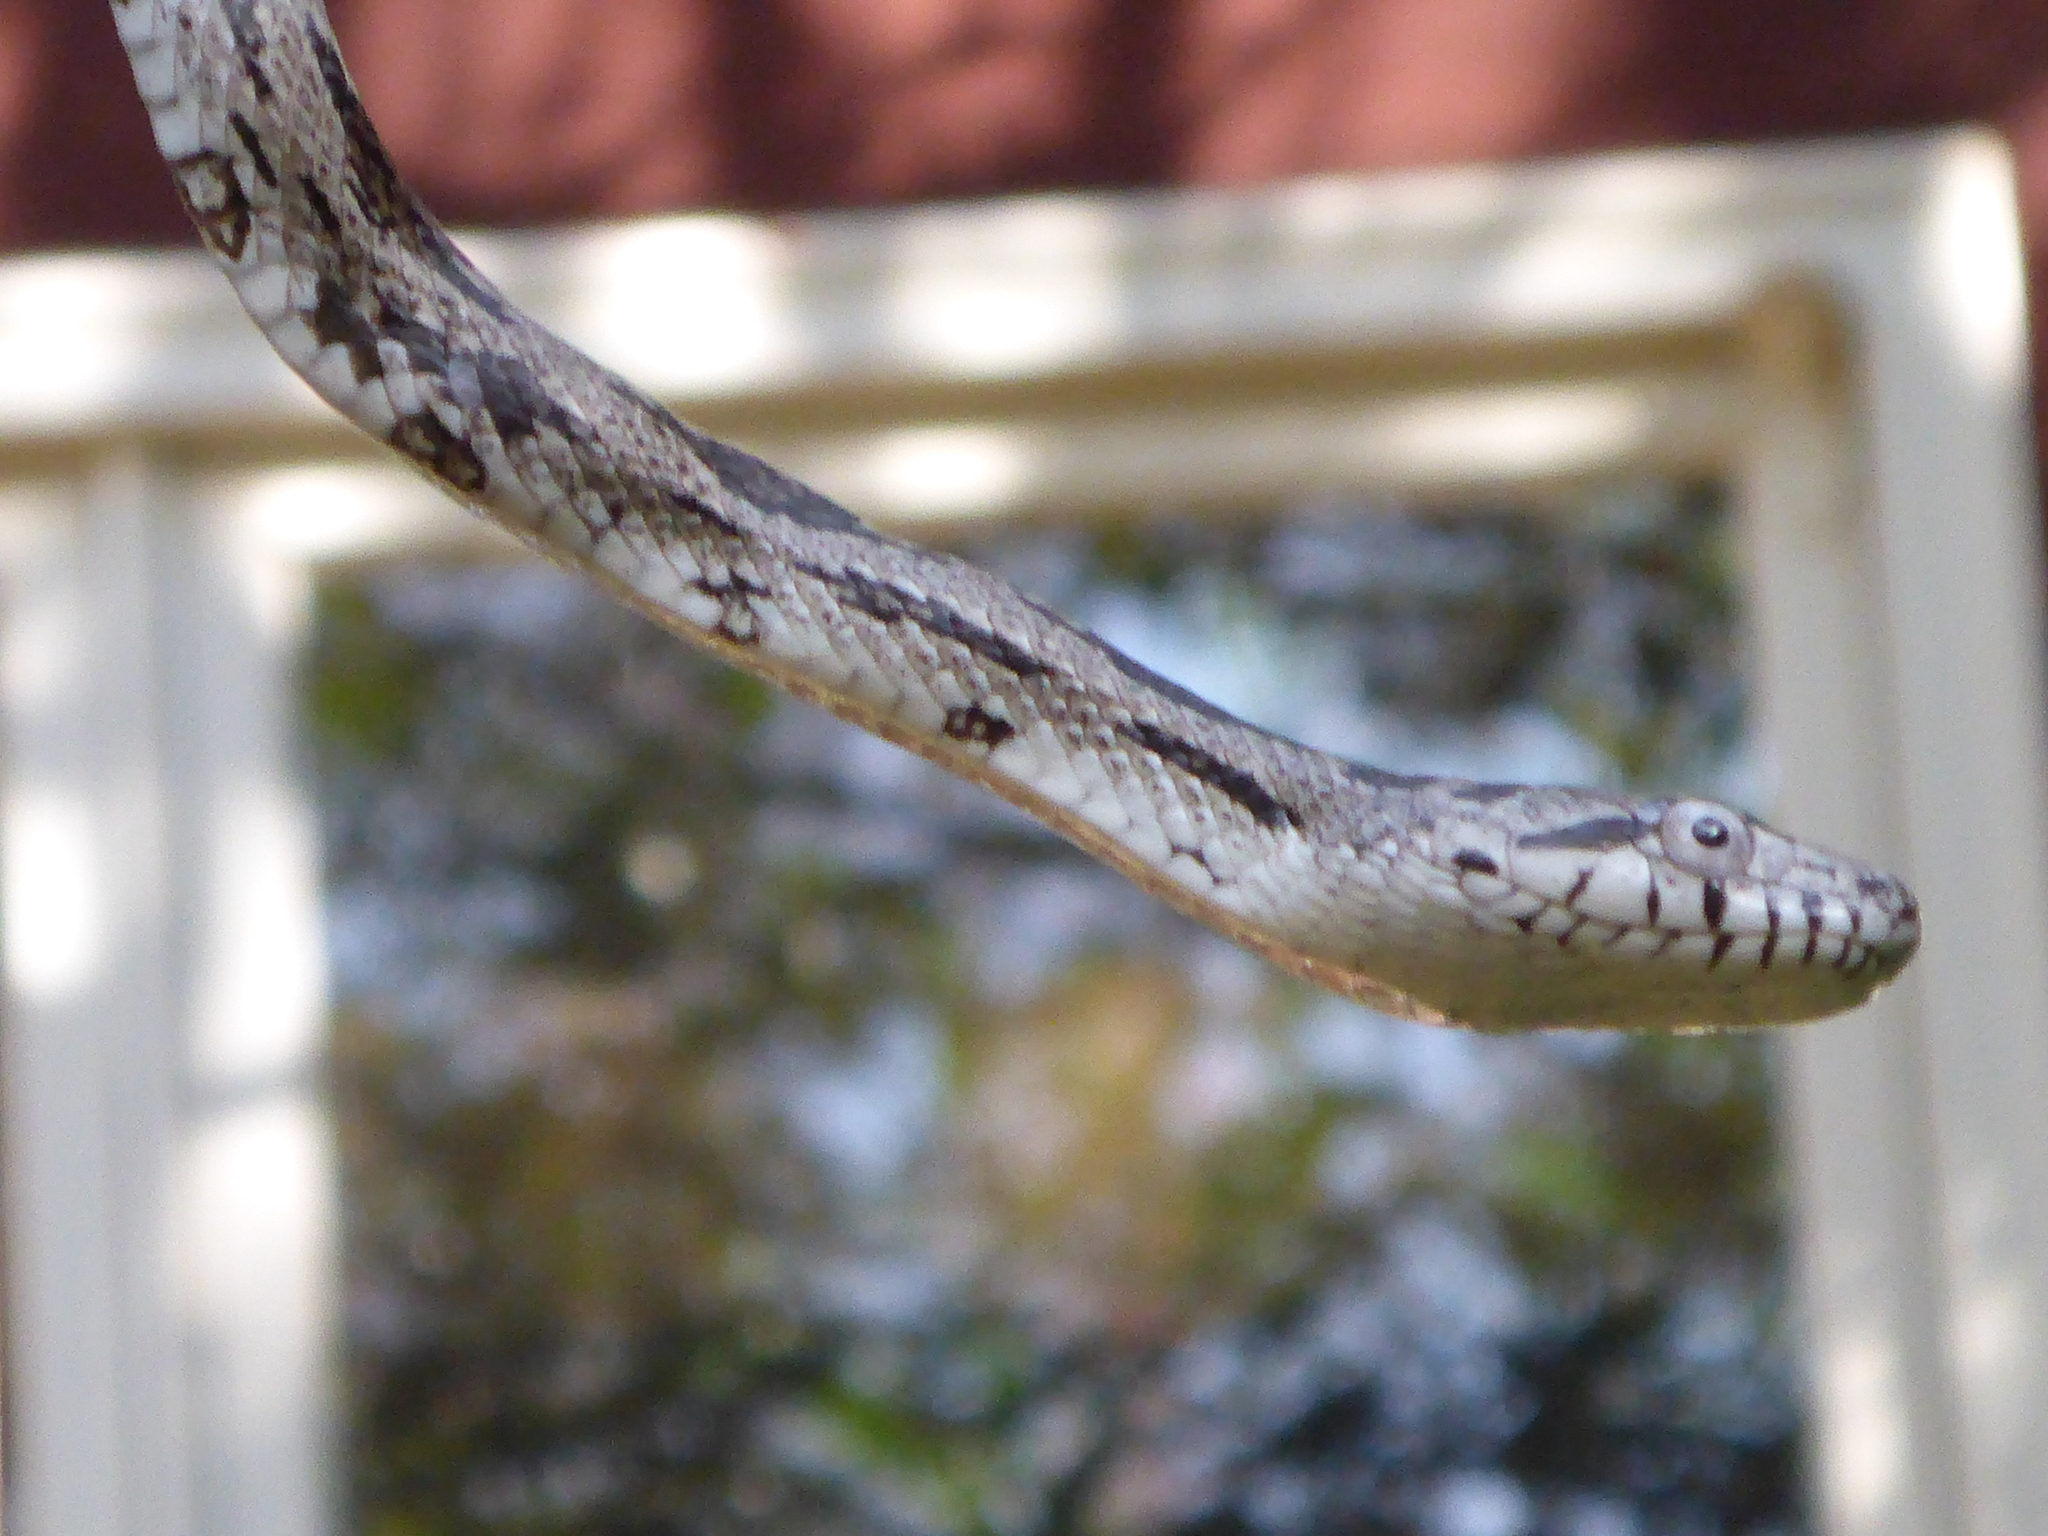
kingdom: Animalia
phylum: Chordata
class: Squamata
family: Colubridae
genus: Pantherophis
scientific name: Pantherophis spiloides
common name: Gray rat snake
